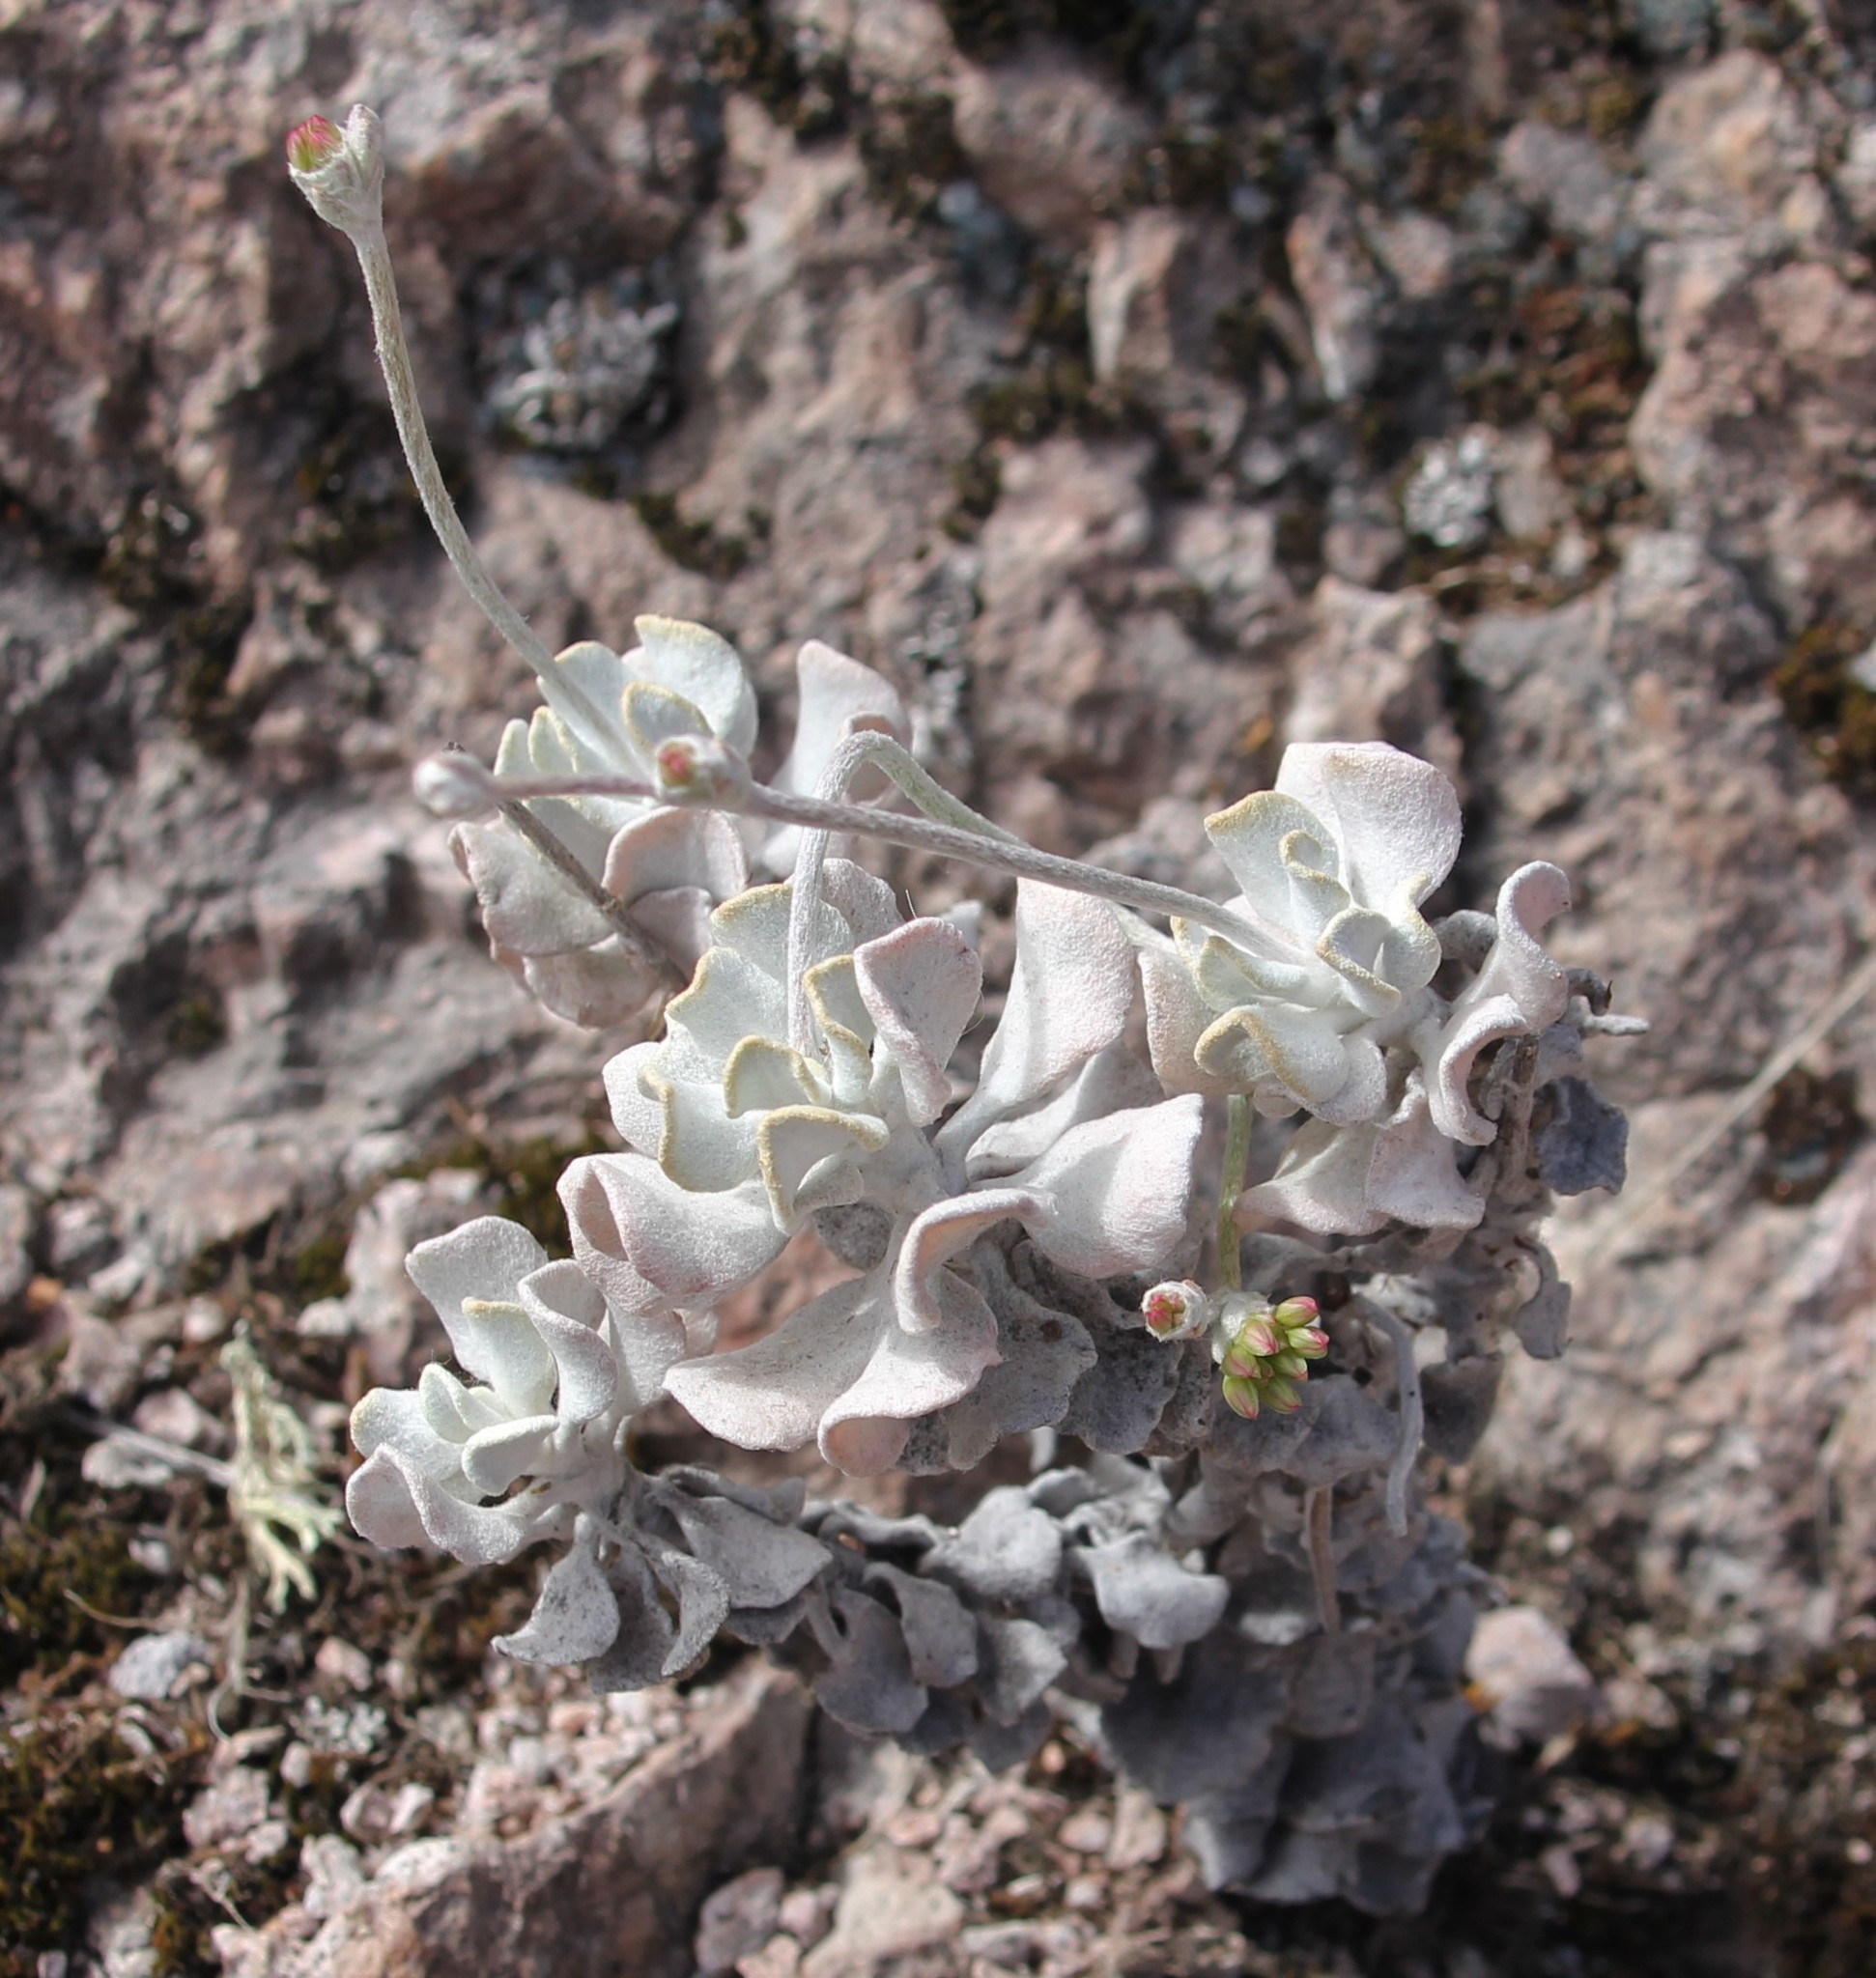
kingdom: Plantae
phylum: Tracheophyta
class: Magnoliopsida
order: Caryophyllales
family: Polygonaceae
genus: Eriogonum
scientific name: Eriogonum saxatile
